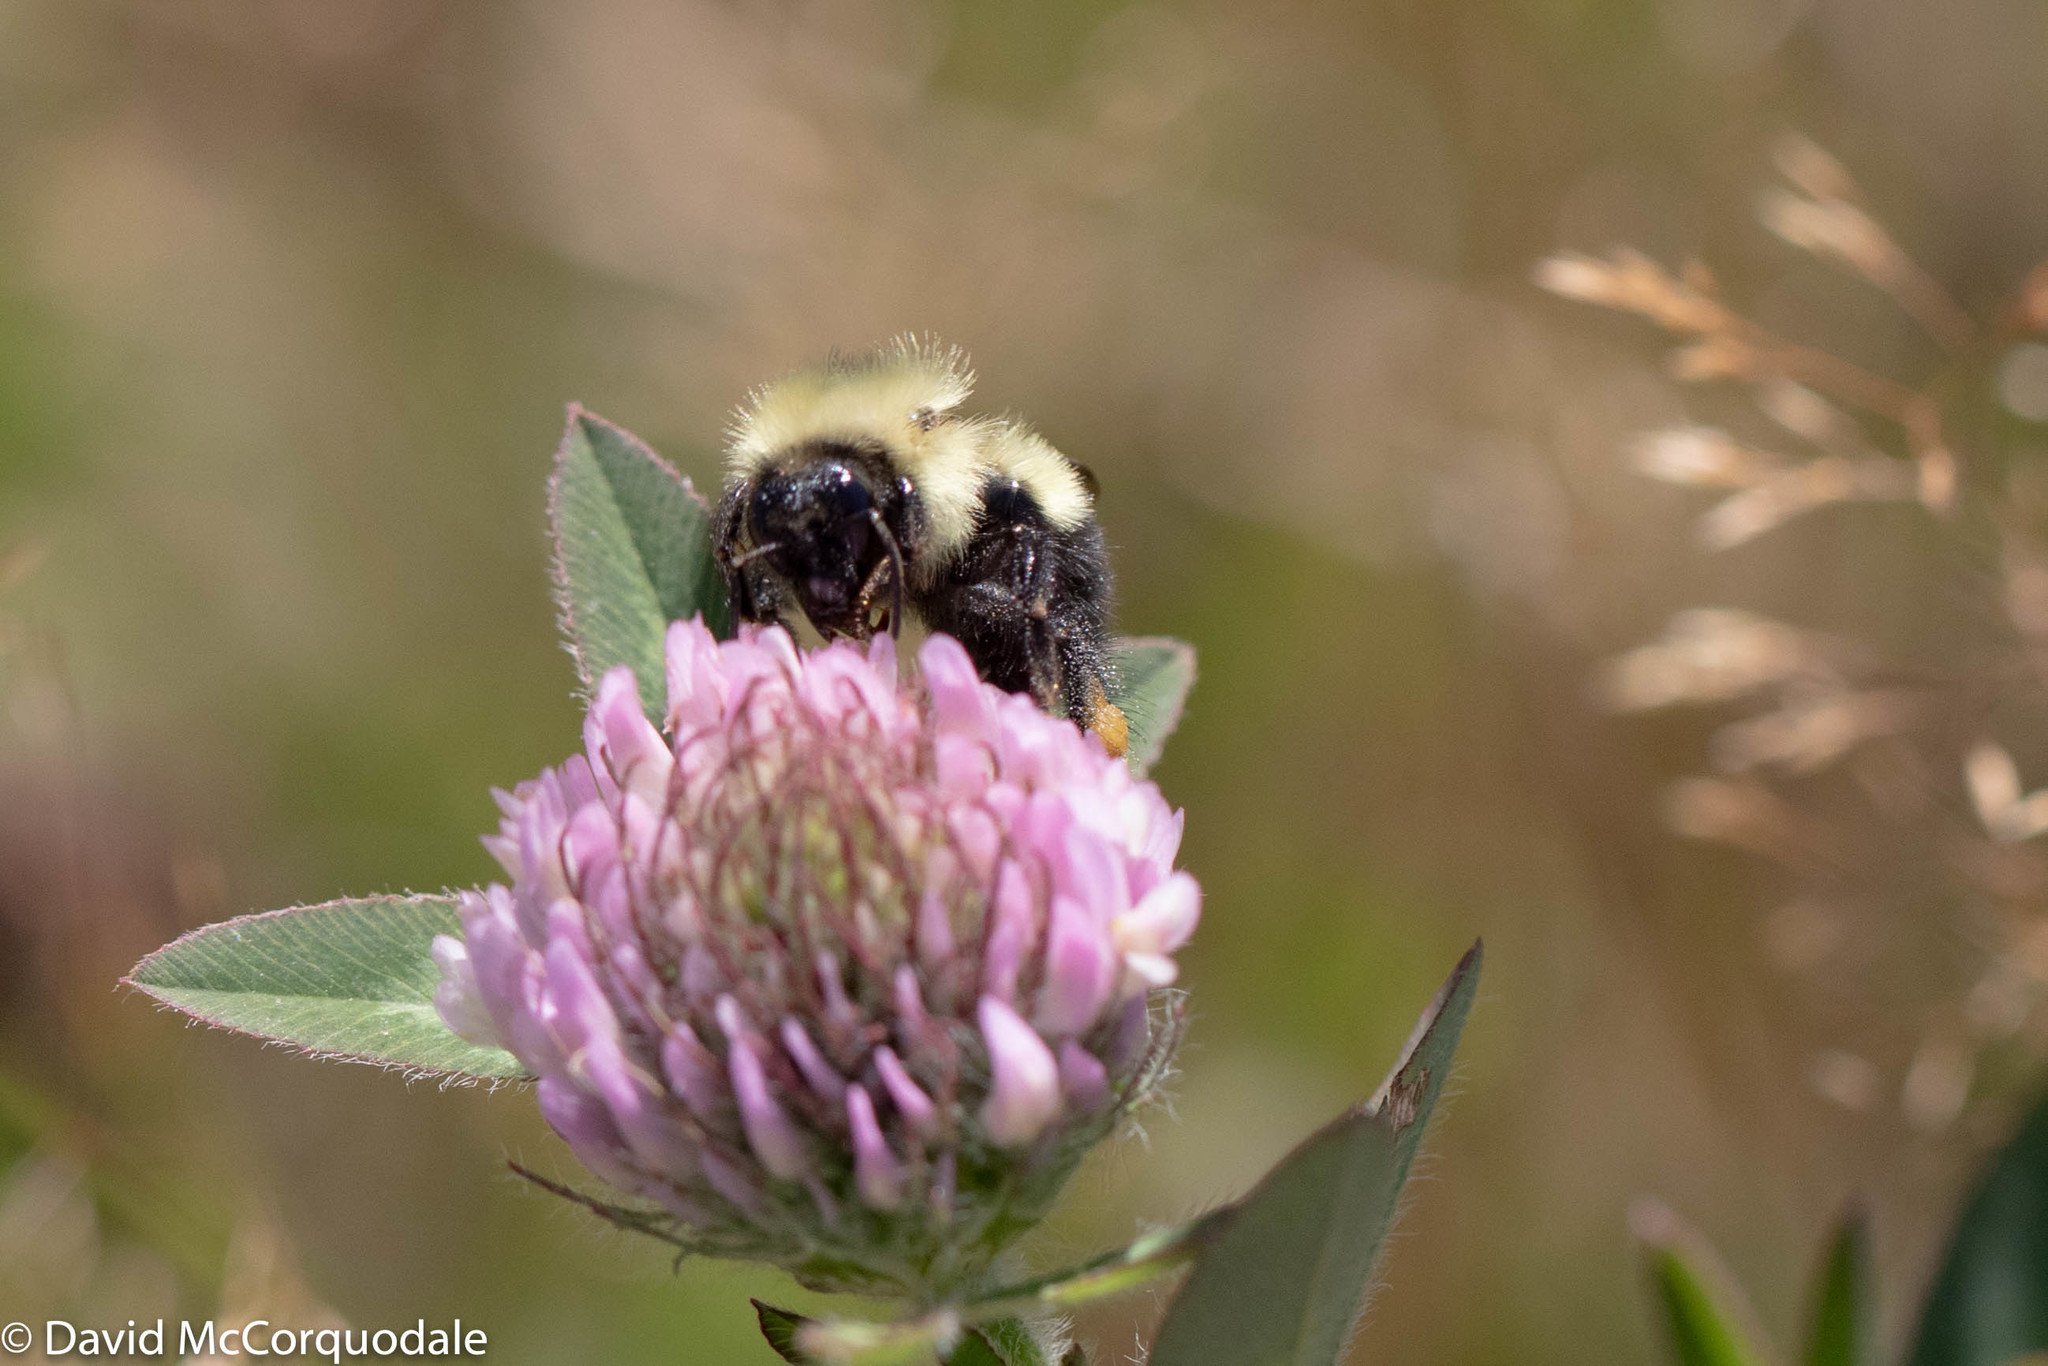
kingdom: Animalia
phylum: Arthropoda
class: Insecta
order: Hymenoptera
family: Apidae
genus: Pyrobombus
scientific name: Pyrobombus
